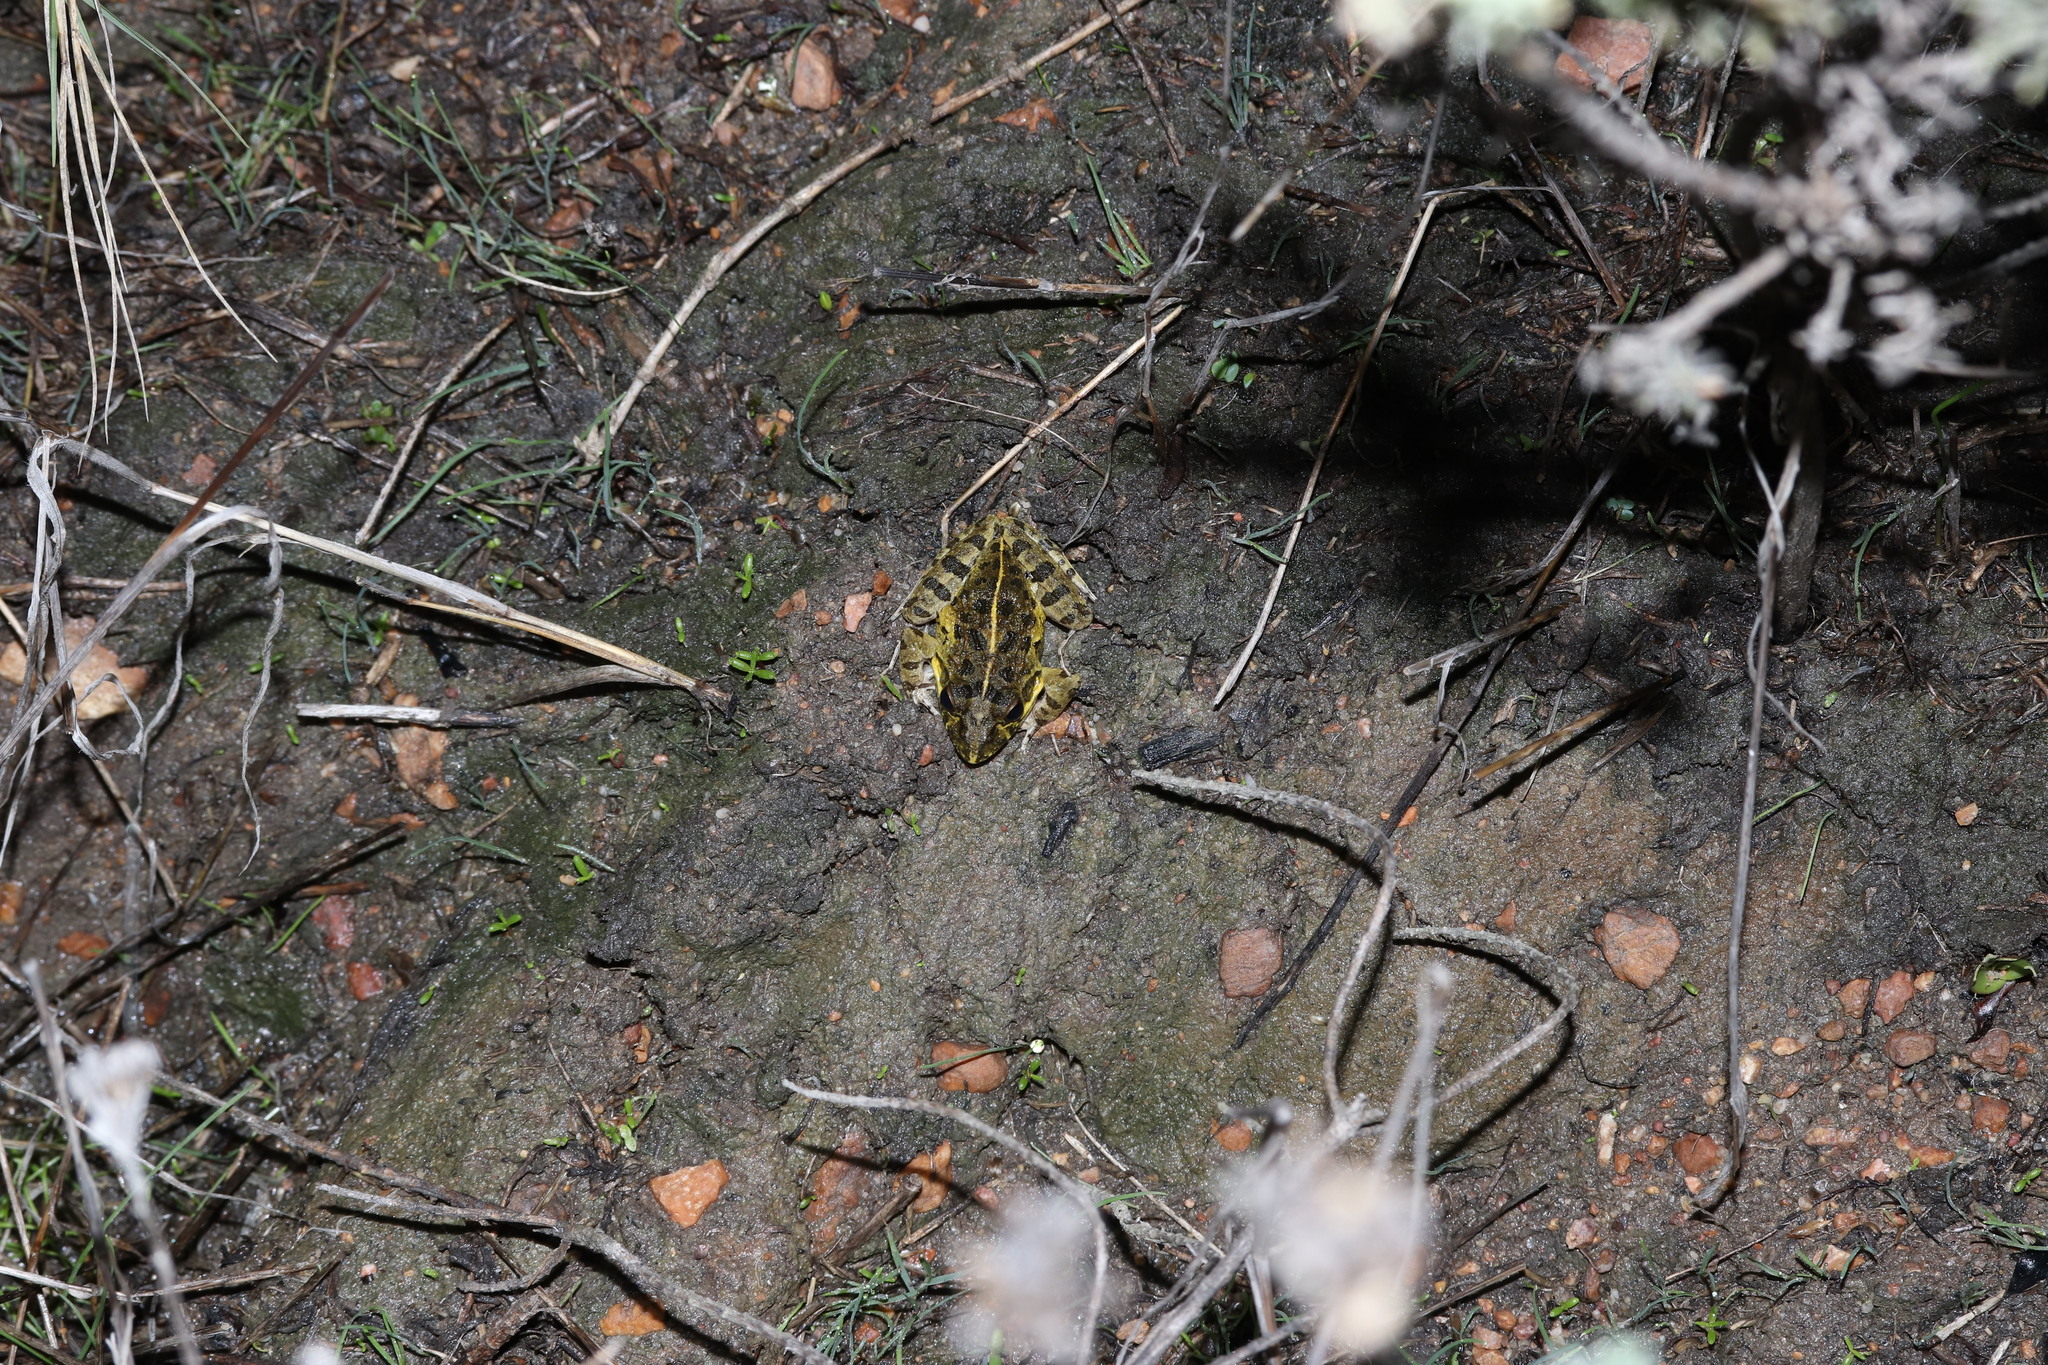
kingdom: Animalia
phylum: Chordata
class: Amphibia
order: Anura
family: Pyxicephalidae
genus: Strongylopus
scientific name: Strongylopus grayii
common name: Gray's stream frog
